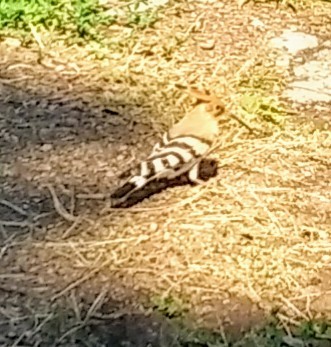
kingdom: Animalia
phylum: Chordata
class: Aves
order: Bucerotiformes
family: Upupidae
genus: Upupa
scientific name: Upupa epops
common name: Eurasian hoopoe
